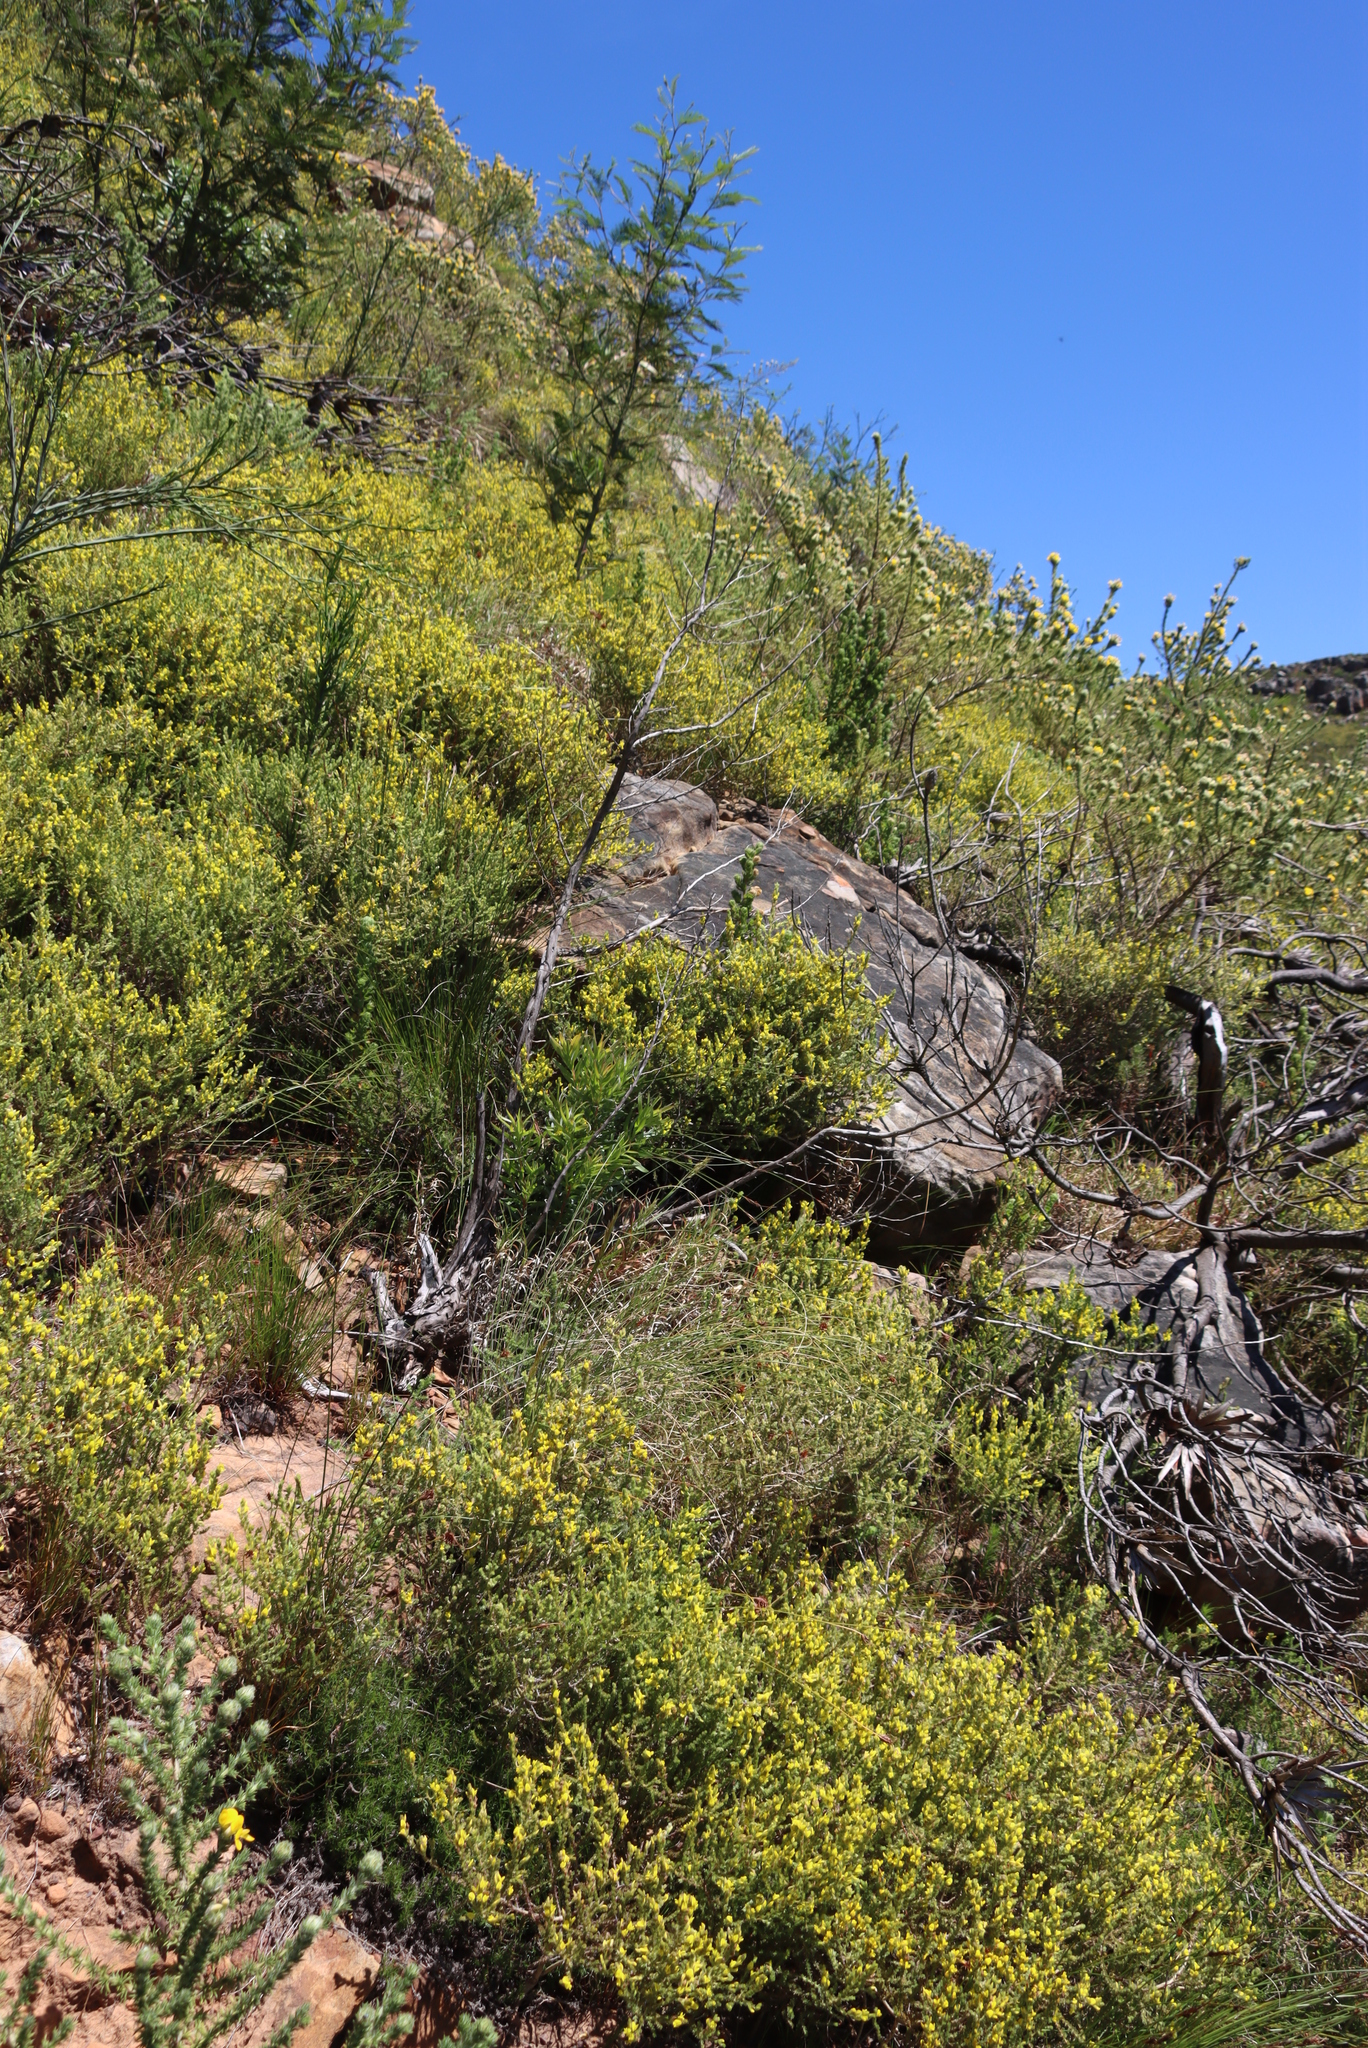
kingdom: Plantae
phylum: Tracheophyta
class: Magnoliopsida
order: Fabales
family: Fabaceae
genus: Aspalathus
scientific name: Aspalathus ericifolia
